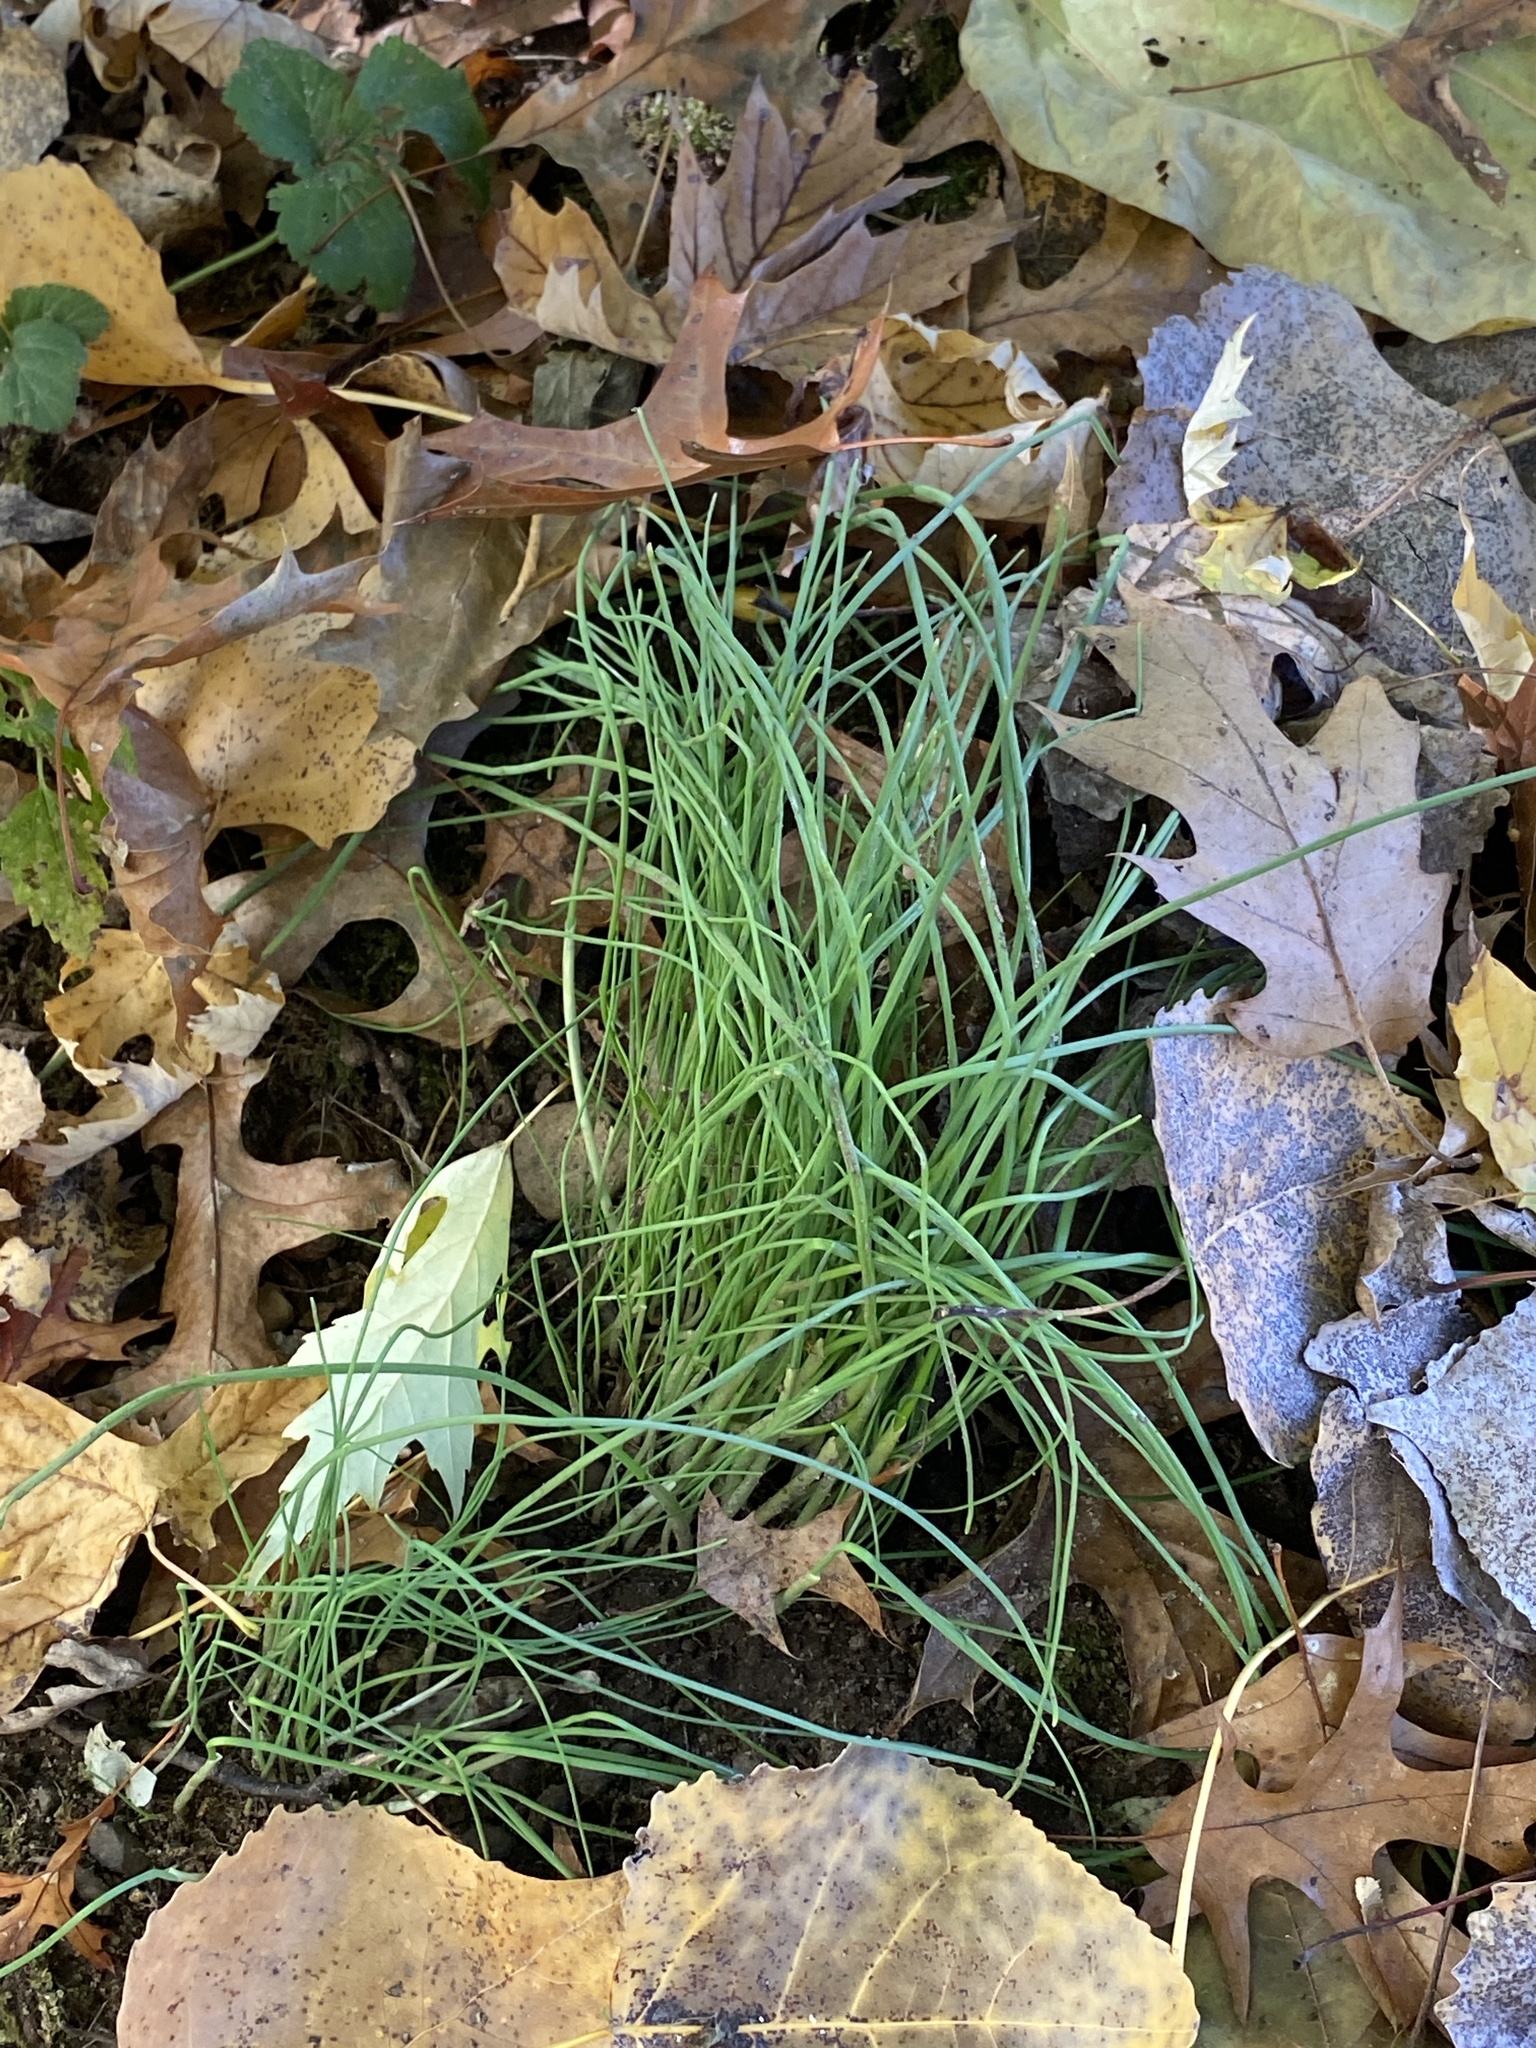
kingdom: Plantae
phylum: Tracheophyta
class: Liliopsida
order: Asparagales
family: Amaryllidaceae
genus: Allium
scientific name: Allium vineale
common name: Crow garlic
